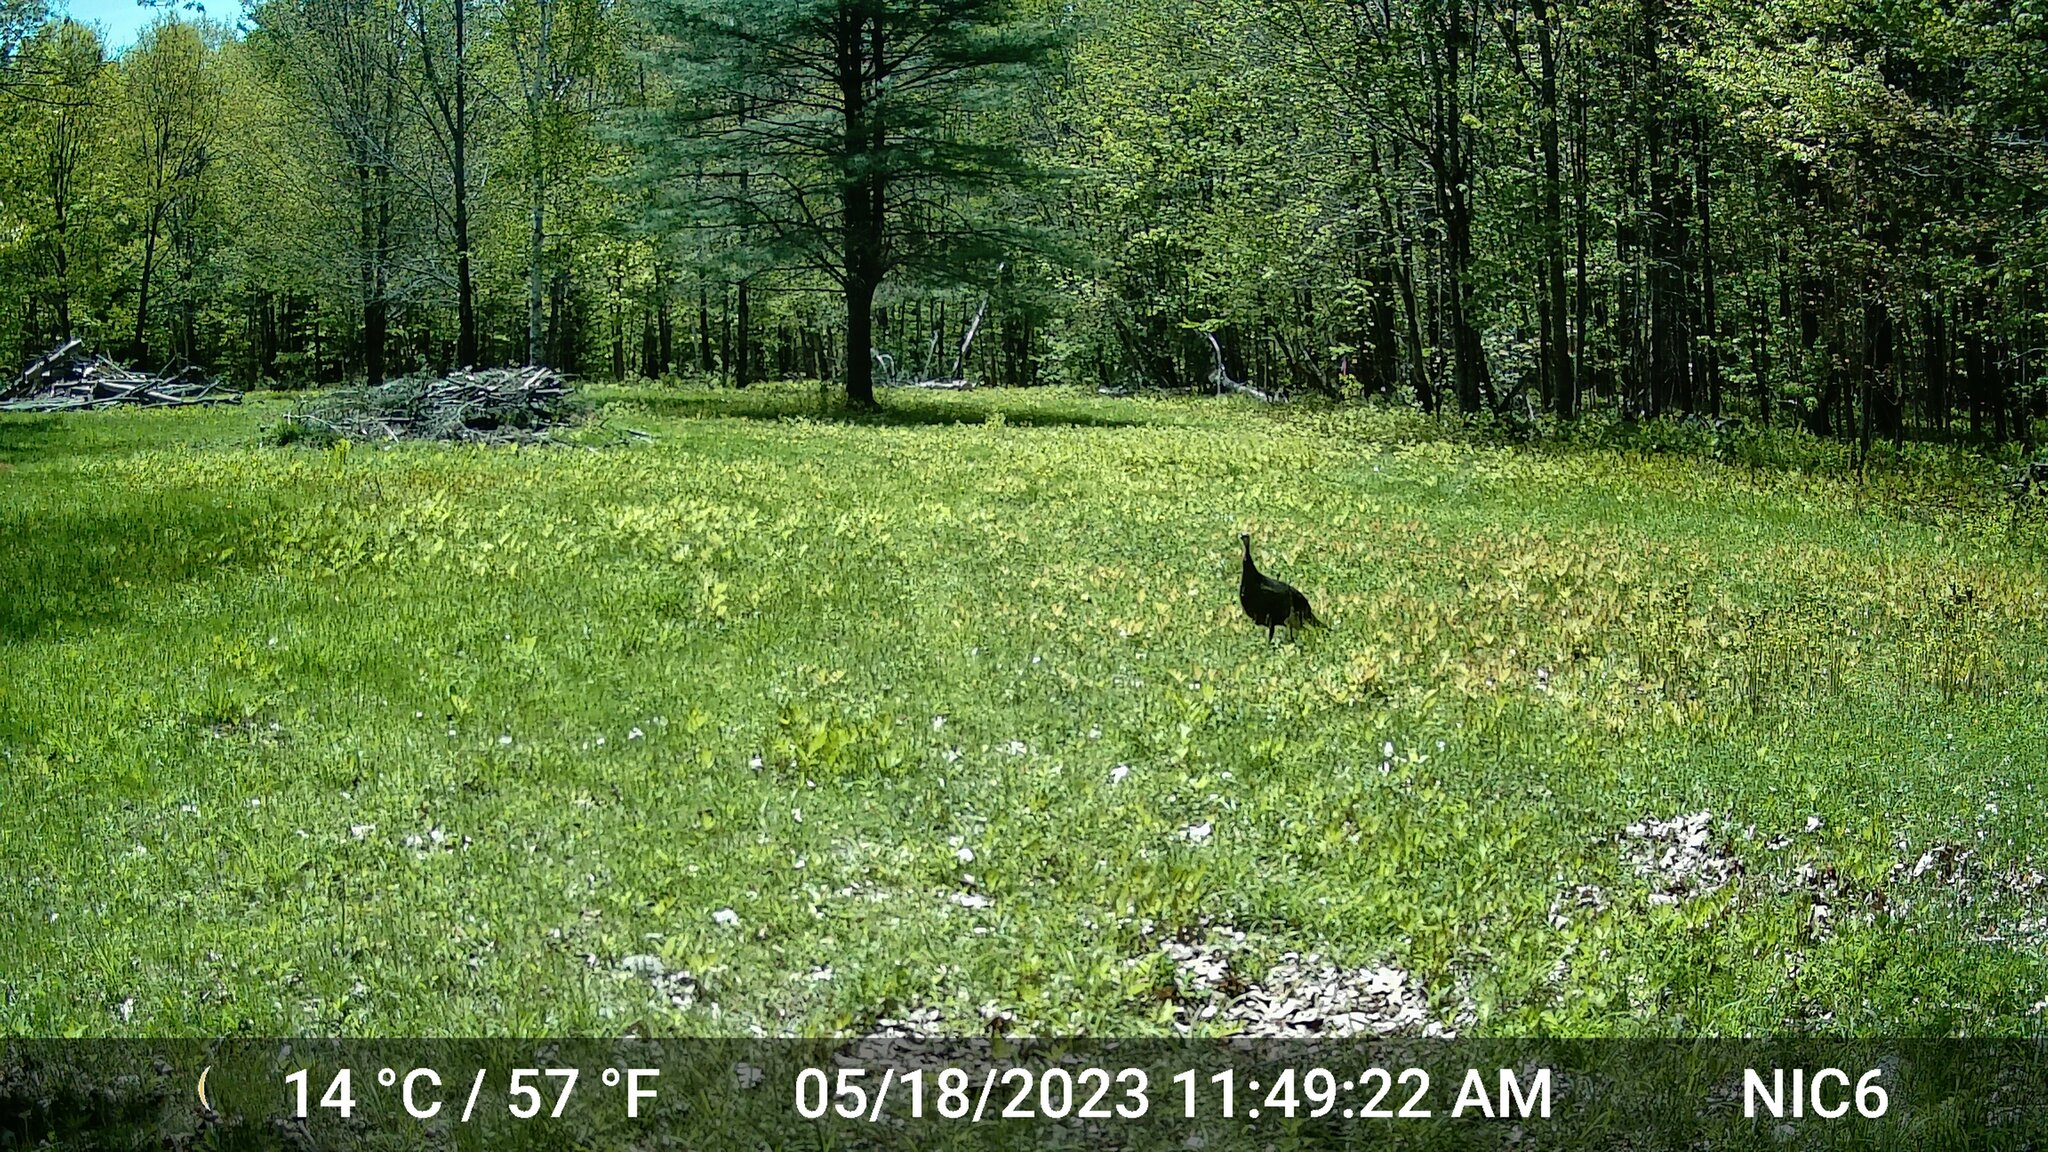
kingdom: Animalia
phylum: Chordata
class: Aves
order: Galliformes
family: Phasianidae
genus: Meleagris
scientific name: Meleagris gallopavo
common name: Wild turkey
